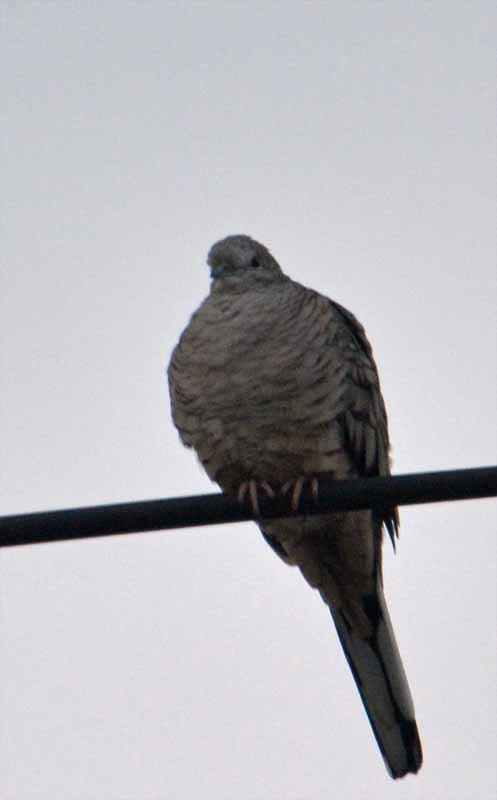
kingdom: Animalia
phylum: Chordata
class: Aves
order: Columbiformes
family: Columbidae
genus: Columbina
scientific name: Columbina inca
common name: Inca dove
